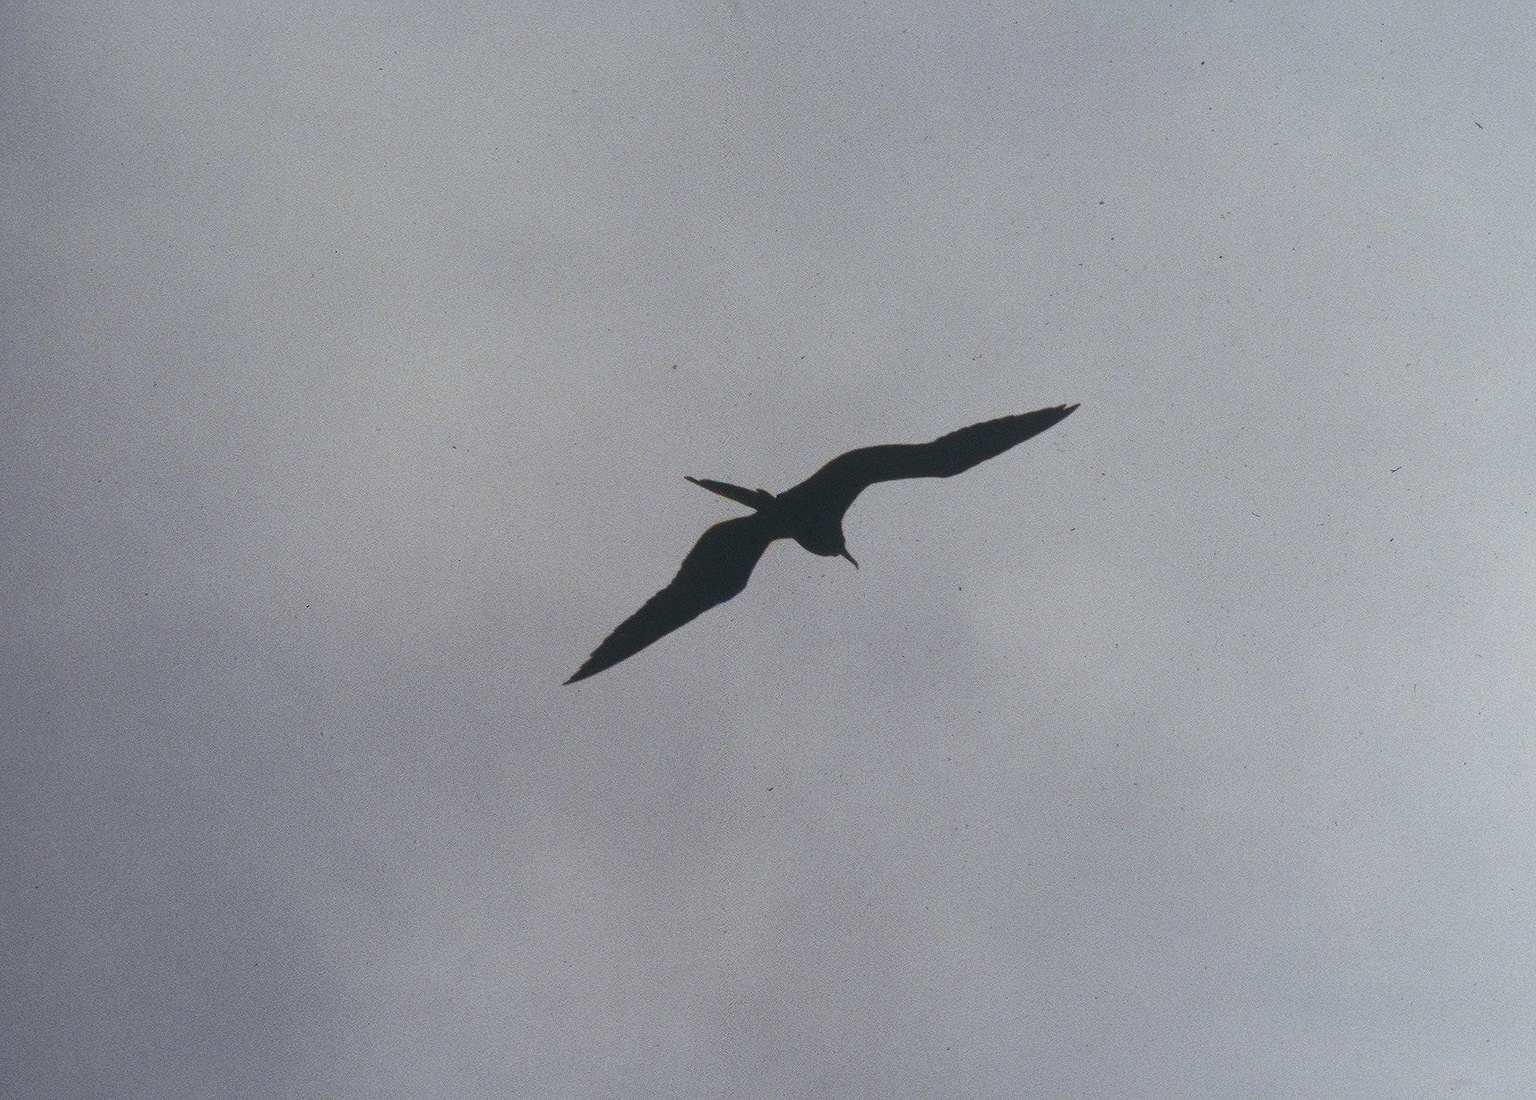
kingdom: Animalia
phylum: Chordata
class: Aves
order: Suliformes
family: Fregatidae
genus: Fregata
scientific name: Fregata magnificens
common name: Magnificent frigatebird
